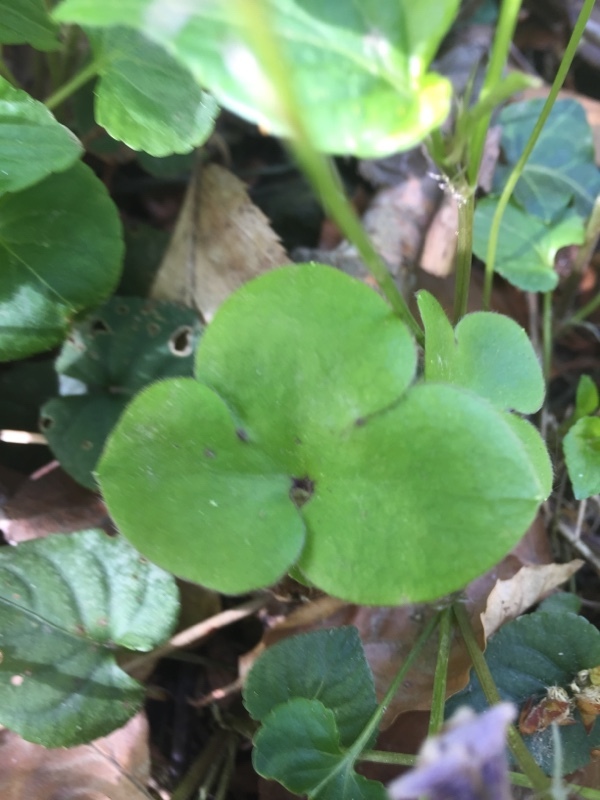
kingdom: Plantae
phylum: Tracheophyta
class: Magnoliopsida
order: Ranunculales
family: Ranunculaceae
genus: Hepatica
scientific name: Hepatica nobilis
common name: Liverleaf
